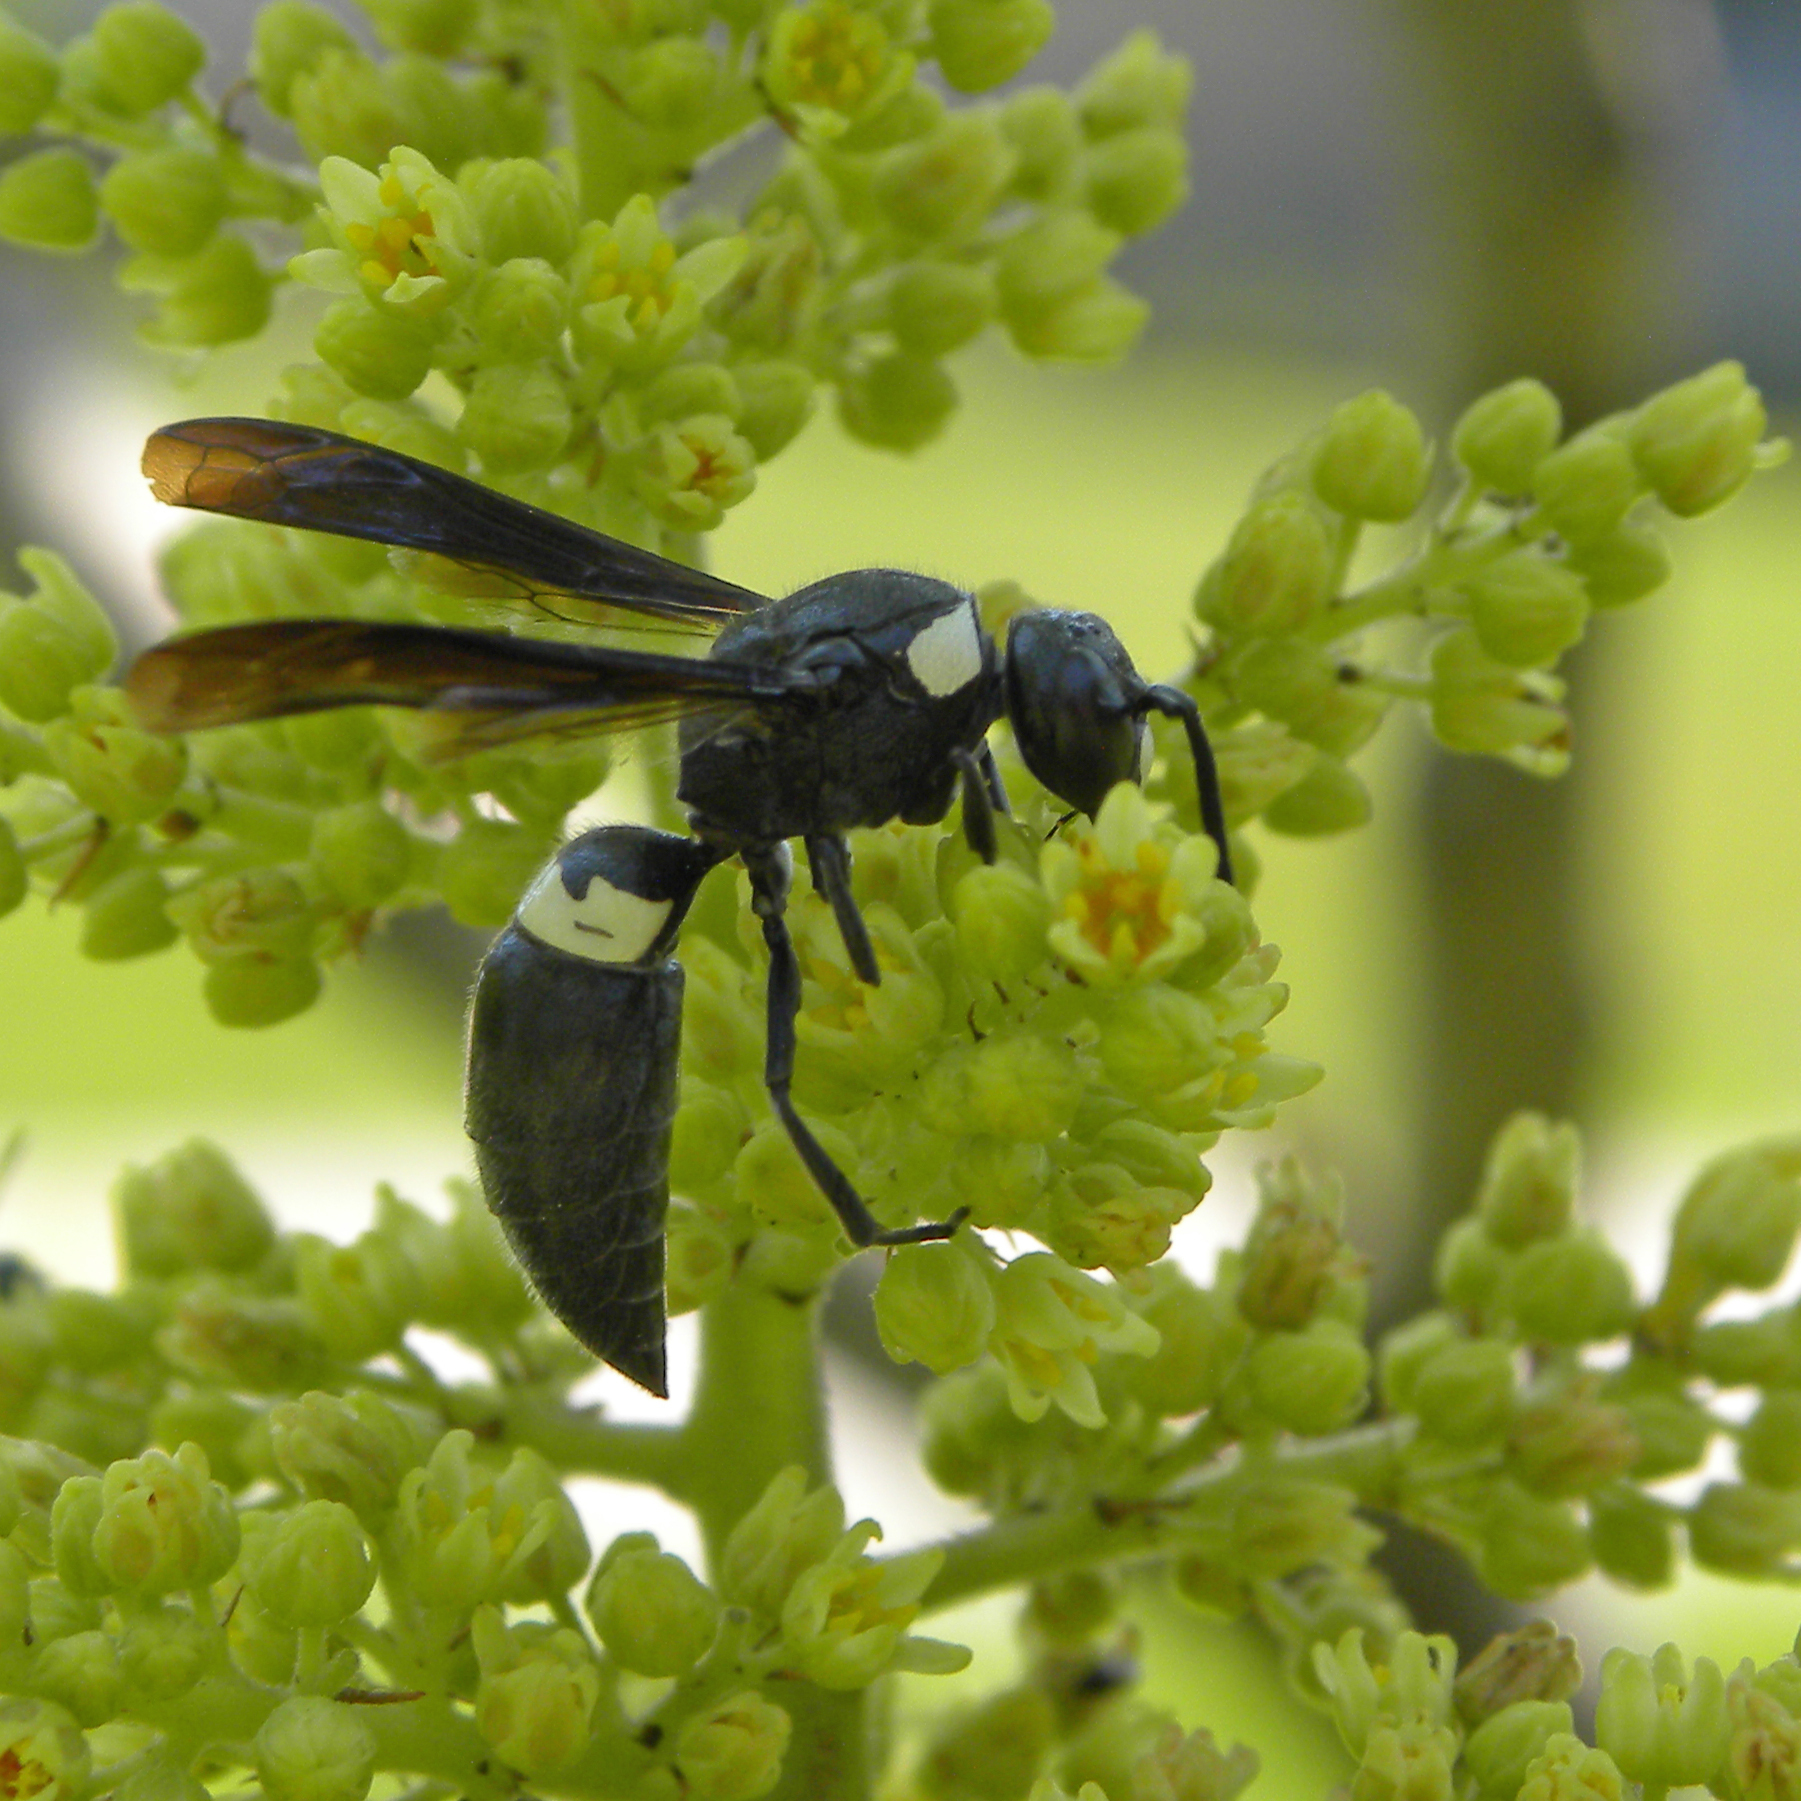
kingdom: Animalia
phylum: Arthropoda
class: Insecta
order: Hymenoptera
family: Eumenidae
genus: Monobia
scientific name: Monobia quadridens
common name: Four-toothed mason wasp
